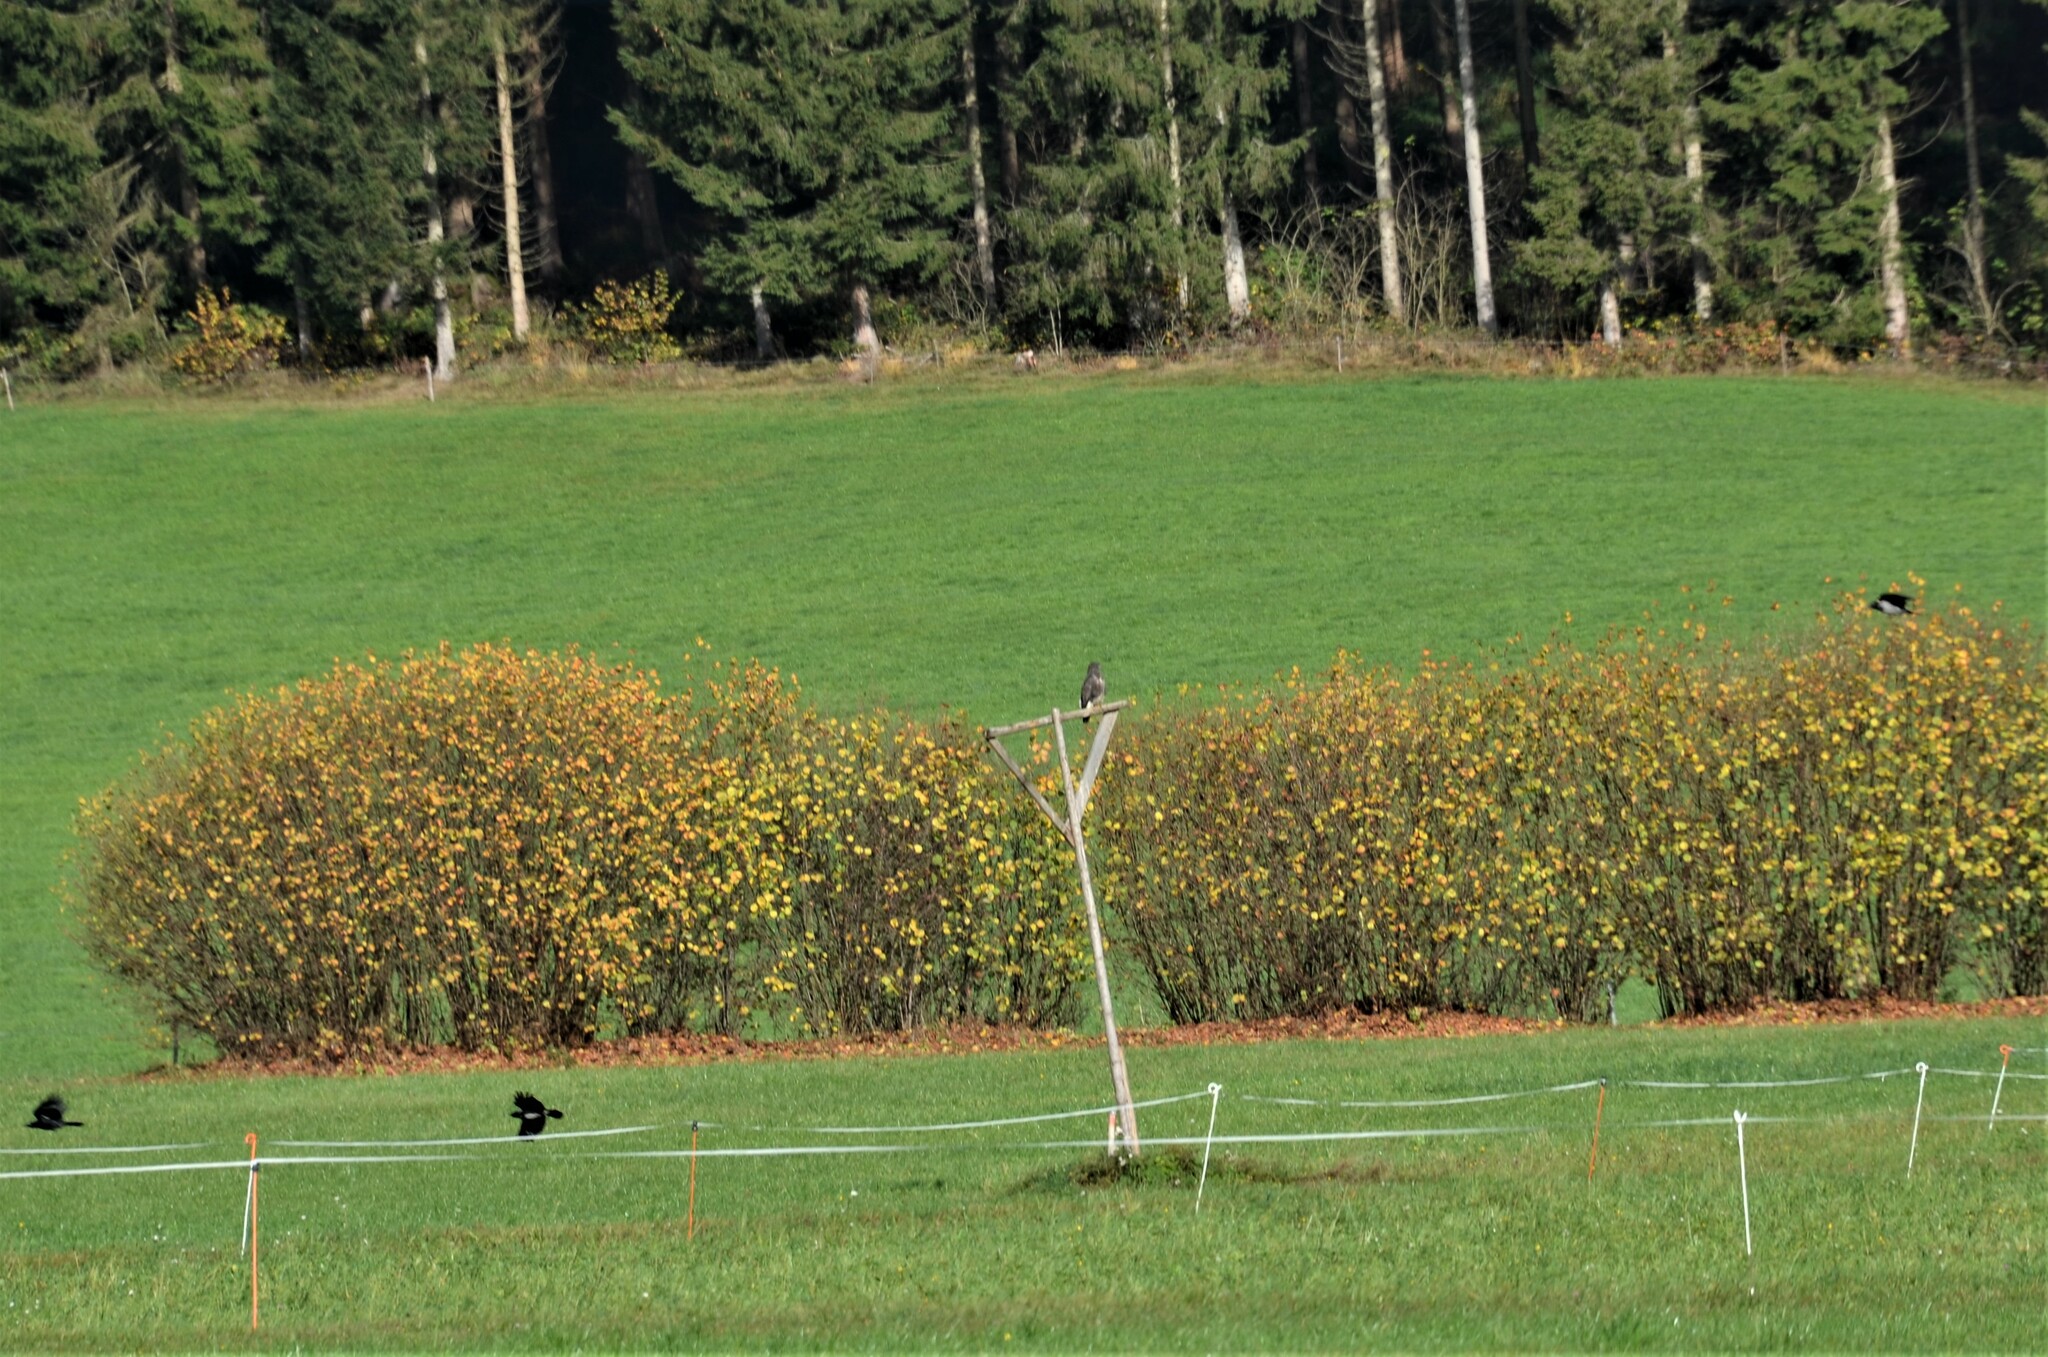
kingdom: Animalia
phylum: Chordata
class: Aves
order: Accipitriformes
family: Accipitridae
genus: Buteo
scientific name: Buteo buteo
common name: Common buzzard
